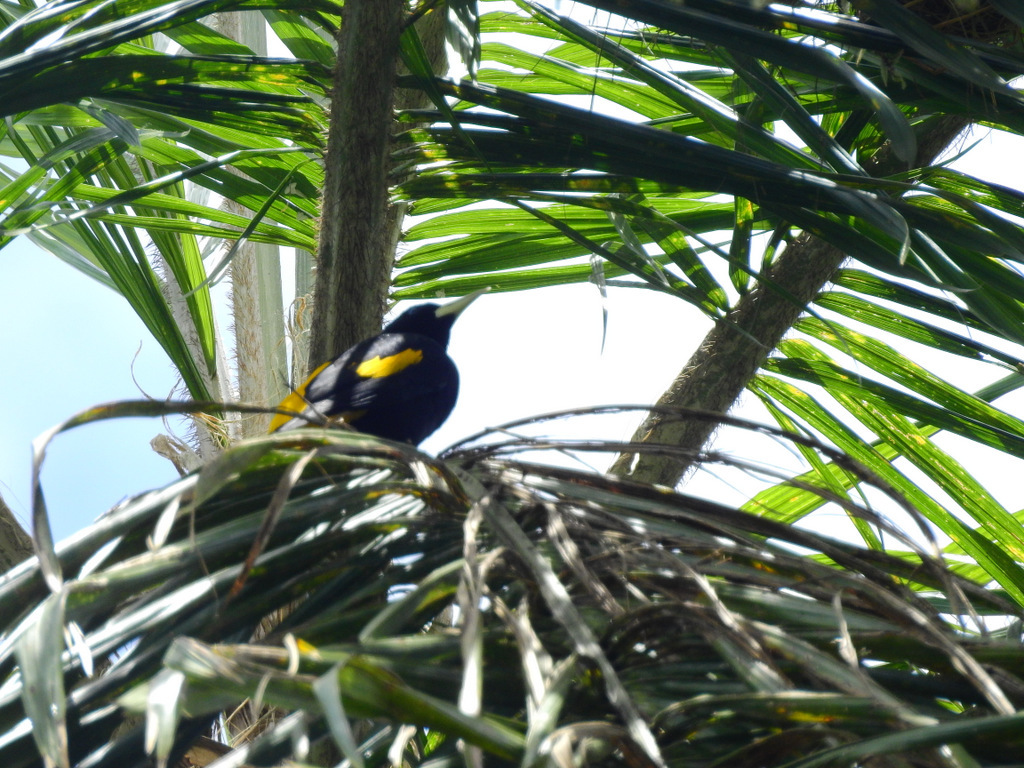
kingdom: Animalia
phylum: Chordata
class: Aves
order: Passeriformes
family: Icteridae
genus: Cacicus
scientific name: Cacicus cela
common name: Yellow-rumped cacique
